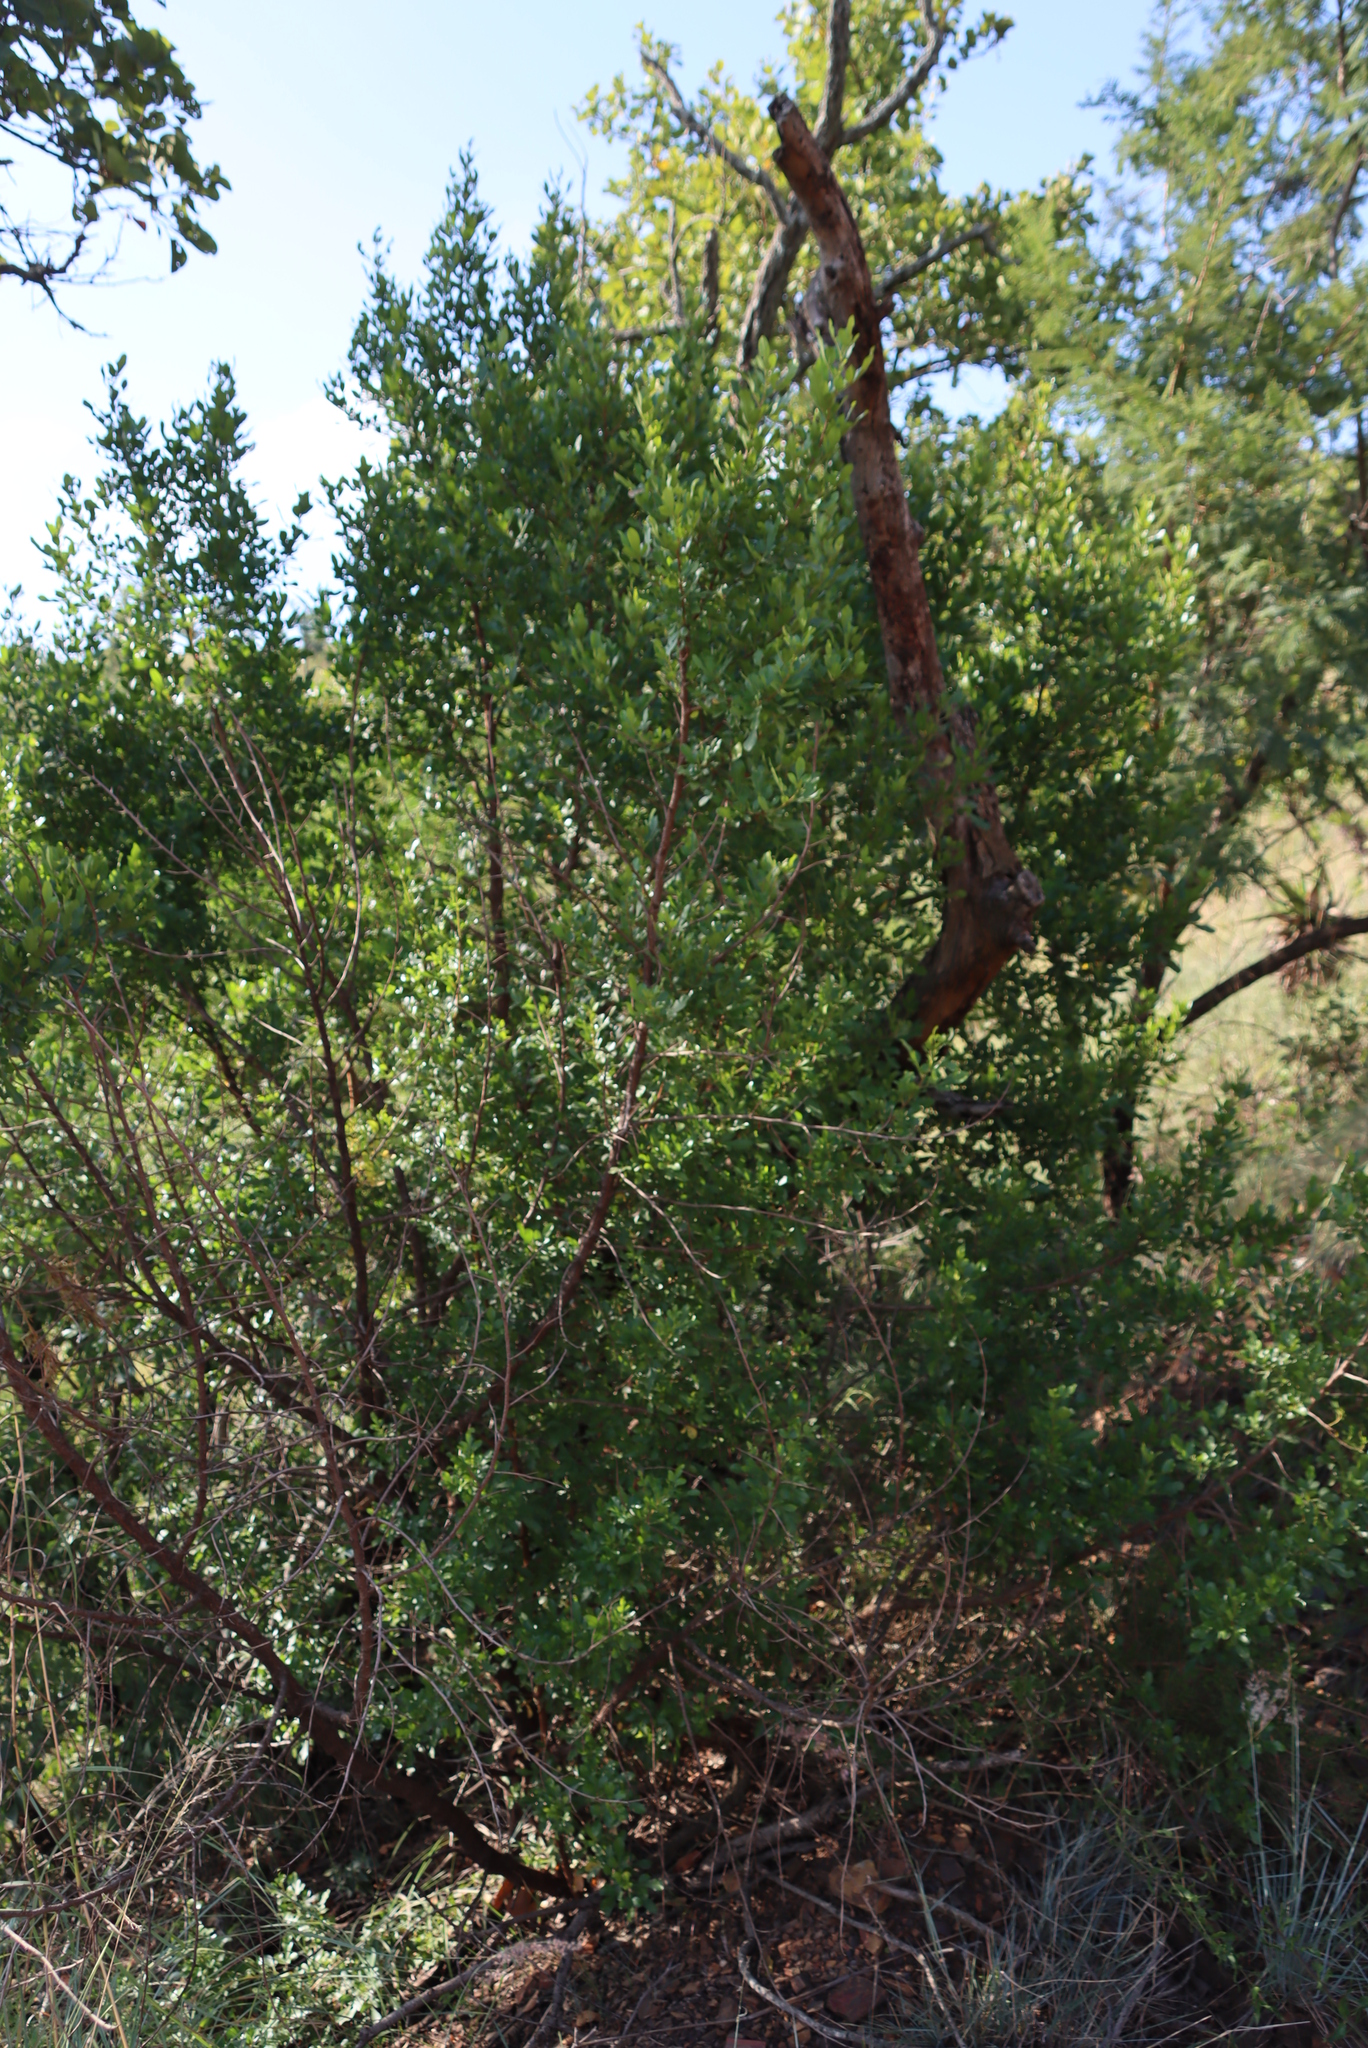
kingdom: Plantae
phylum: Tracheophyta
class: Magnoliopsida
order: Sapindales
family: Anacardiaceae
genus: Searsia
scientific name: Searsia pallens
